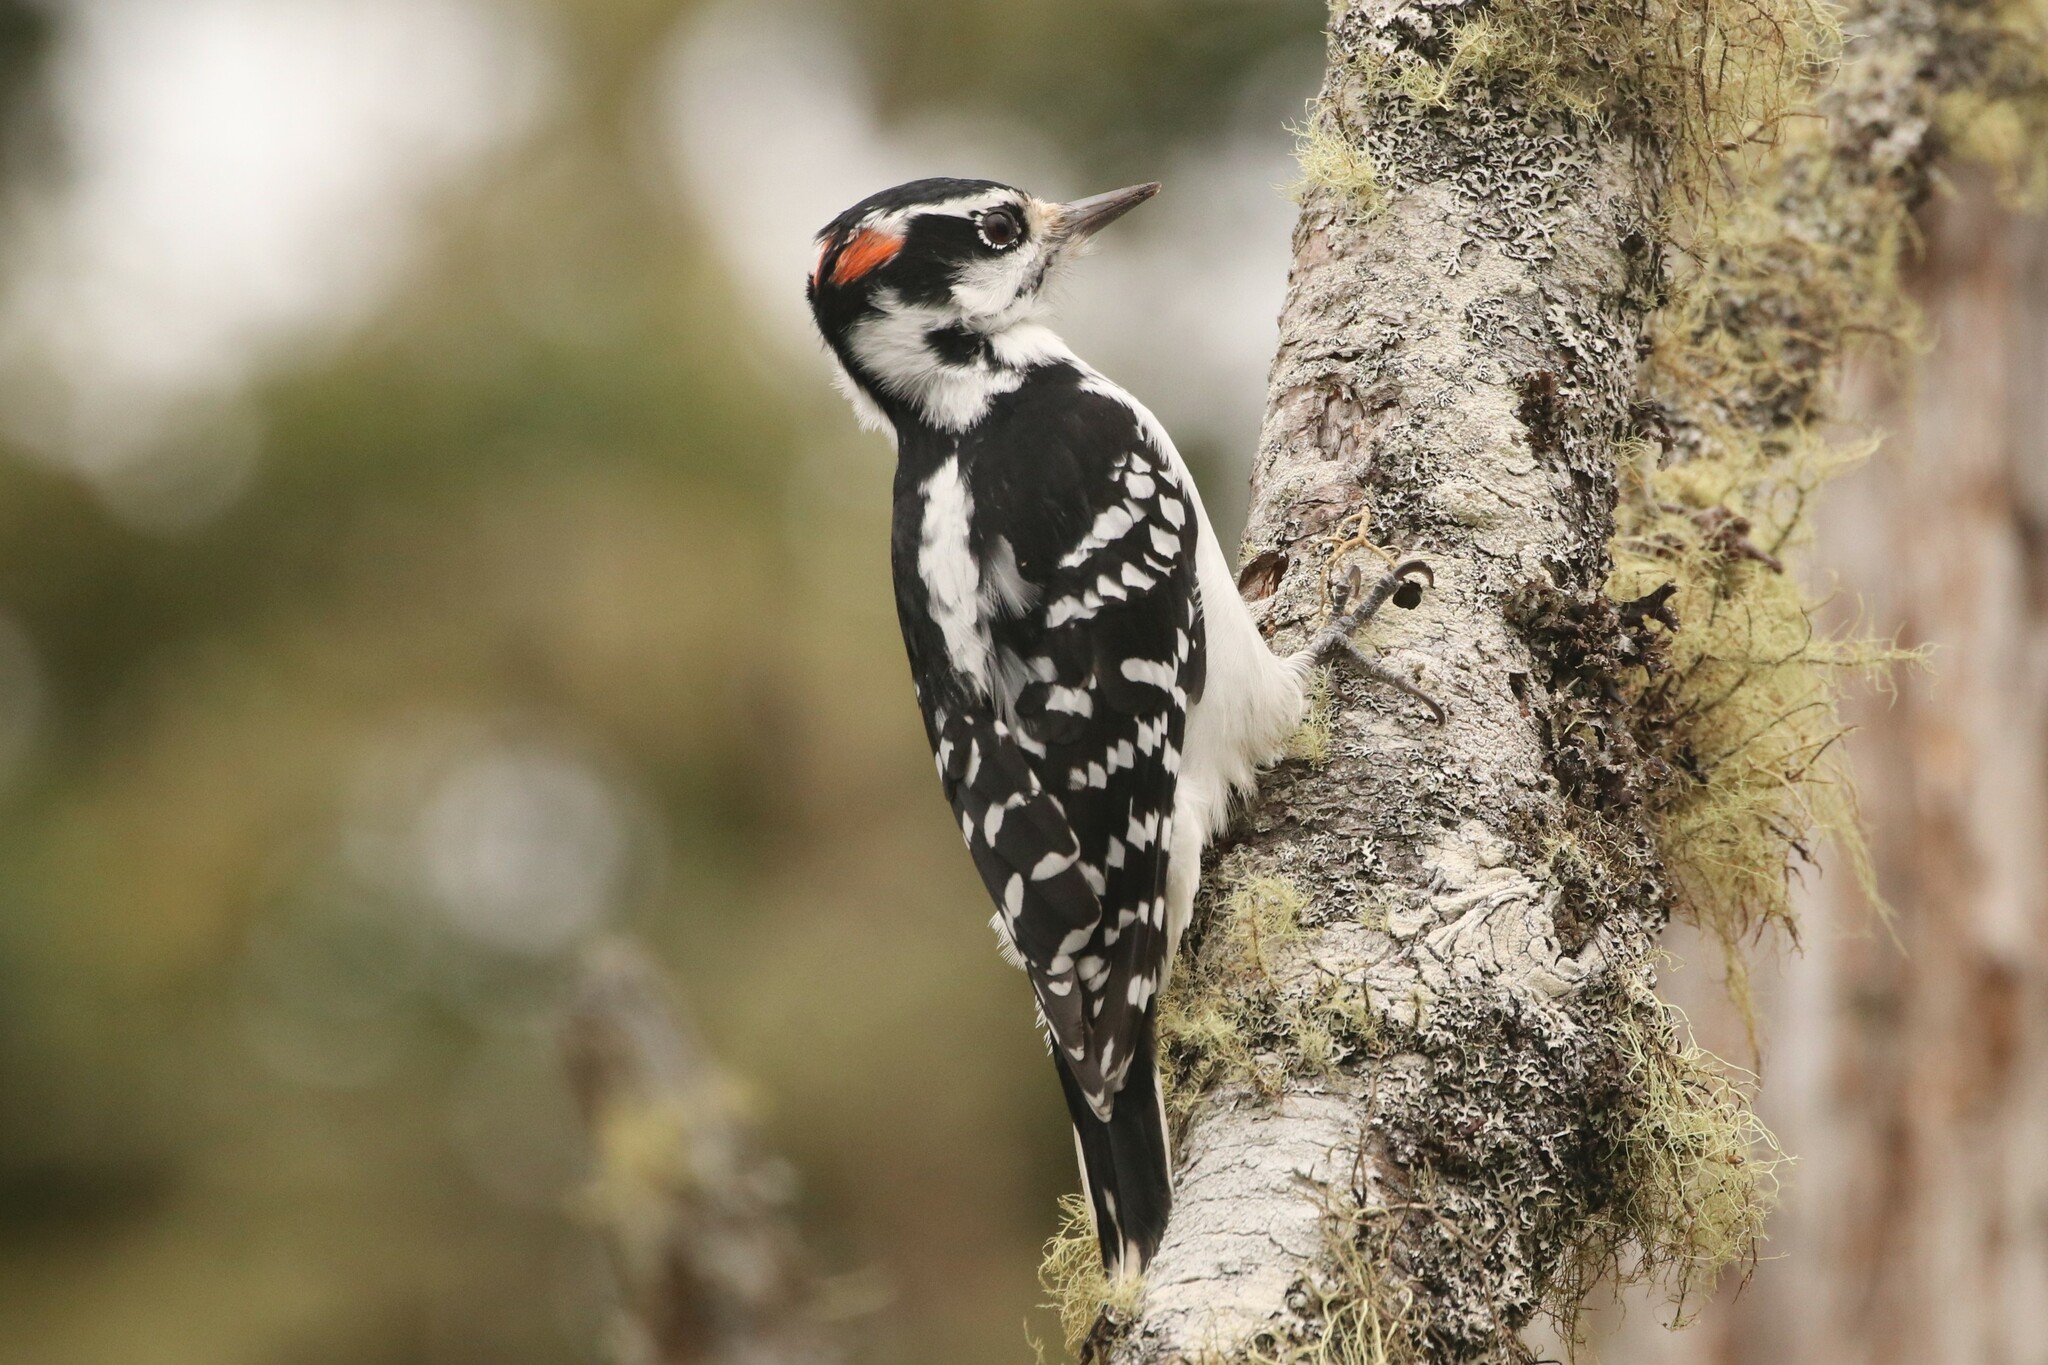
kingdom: Animalia
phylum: Chordata
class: Aves
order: Piciformes
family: Picidae
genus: Leuconotopicus
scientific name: Leuconotopicus villosus
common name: Hairy woodpecker
